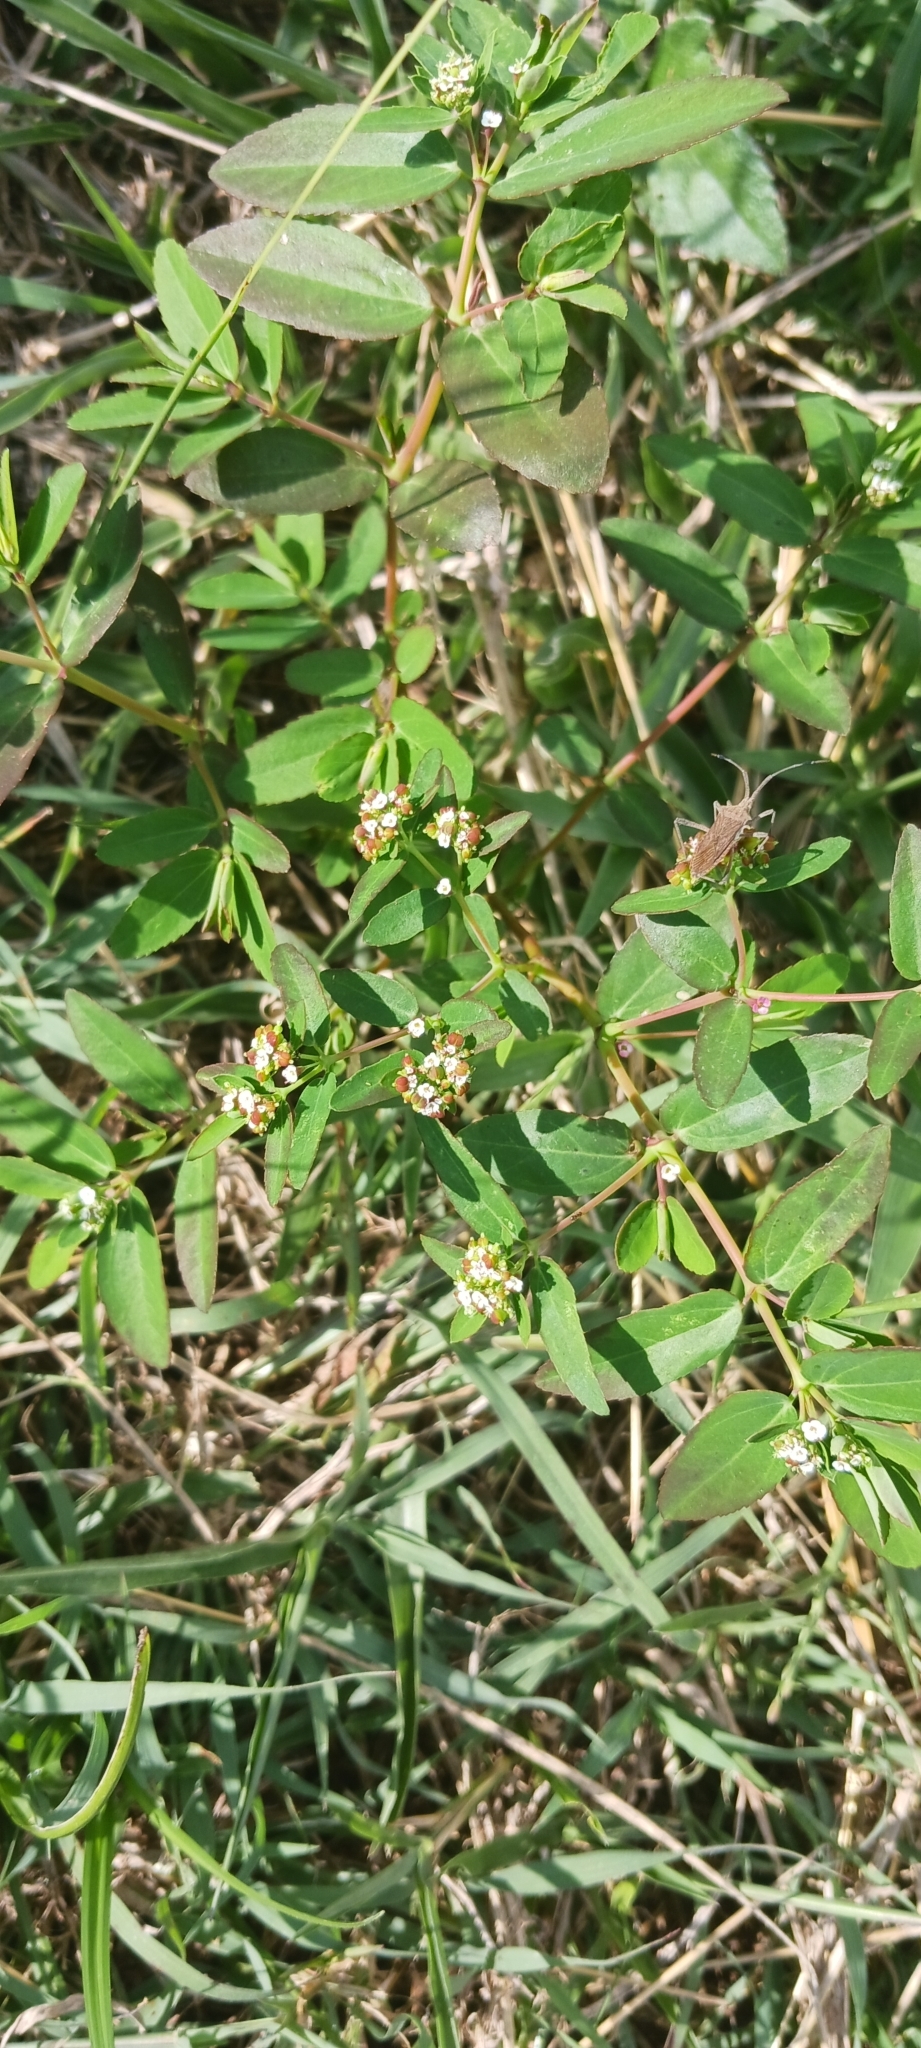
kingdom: Plantae
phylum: Tracheophyta
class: Magnoliopsida
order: Malpighiales
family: Euphorbiaceae
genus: Euphorbia
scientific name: Euphorbia hypericifolia
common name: Graceful sandmat
